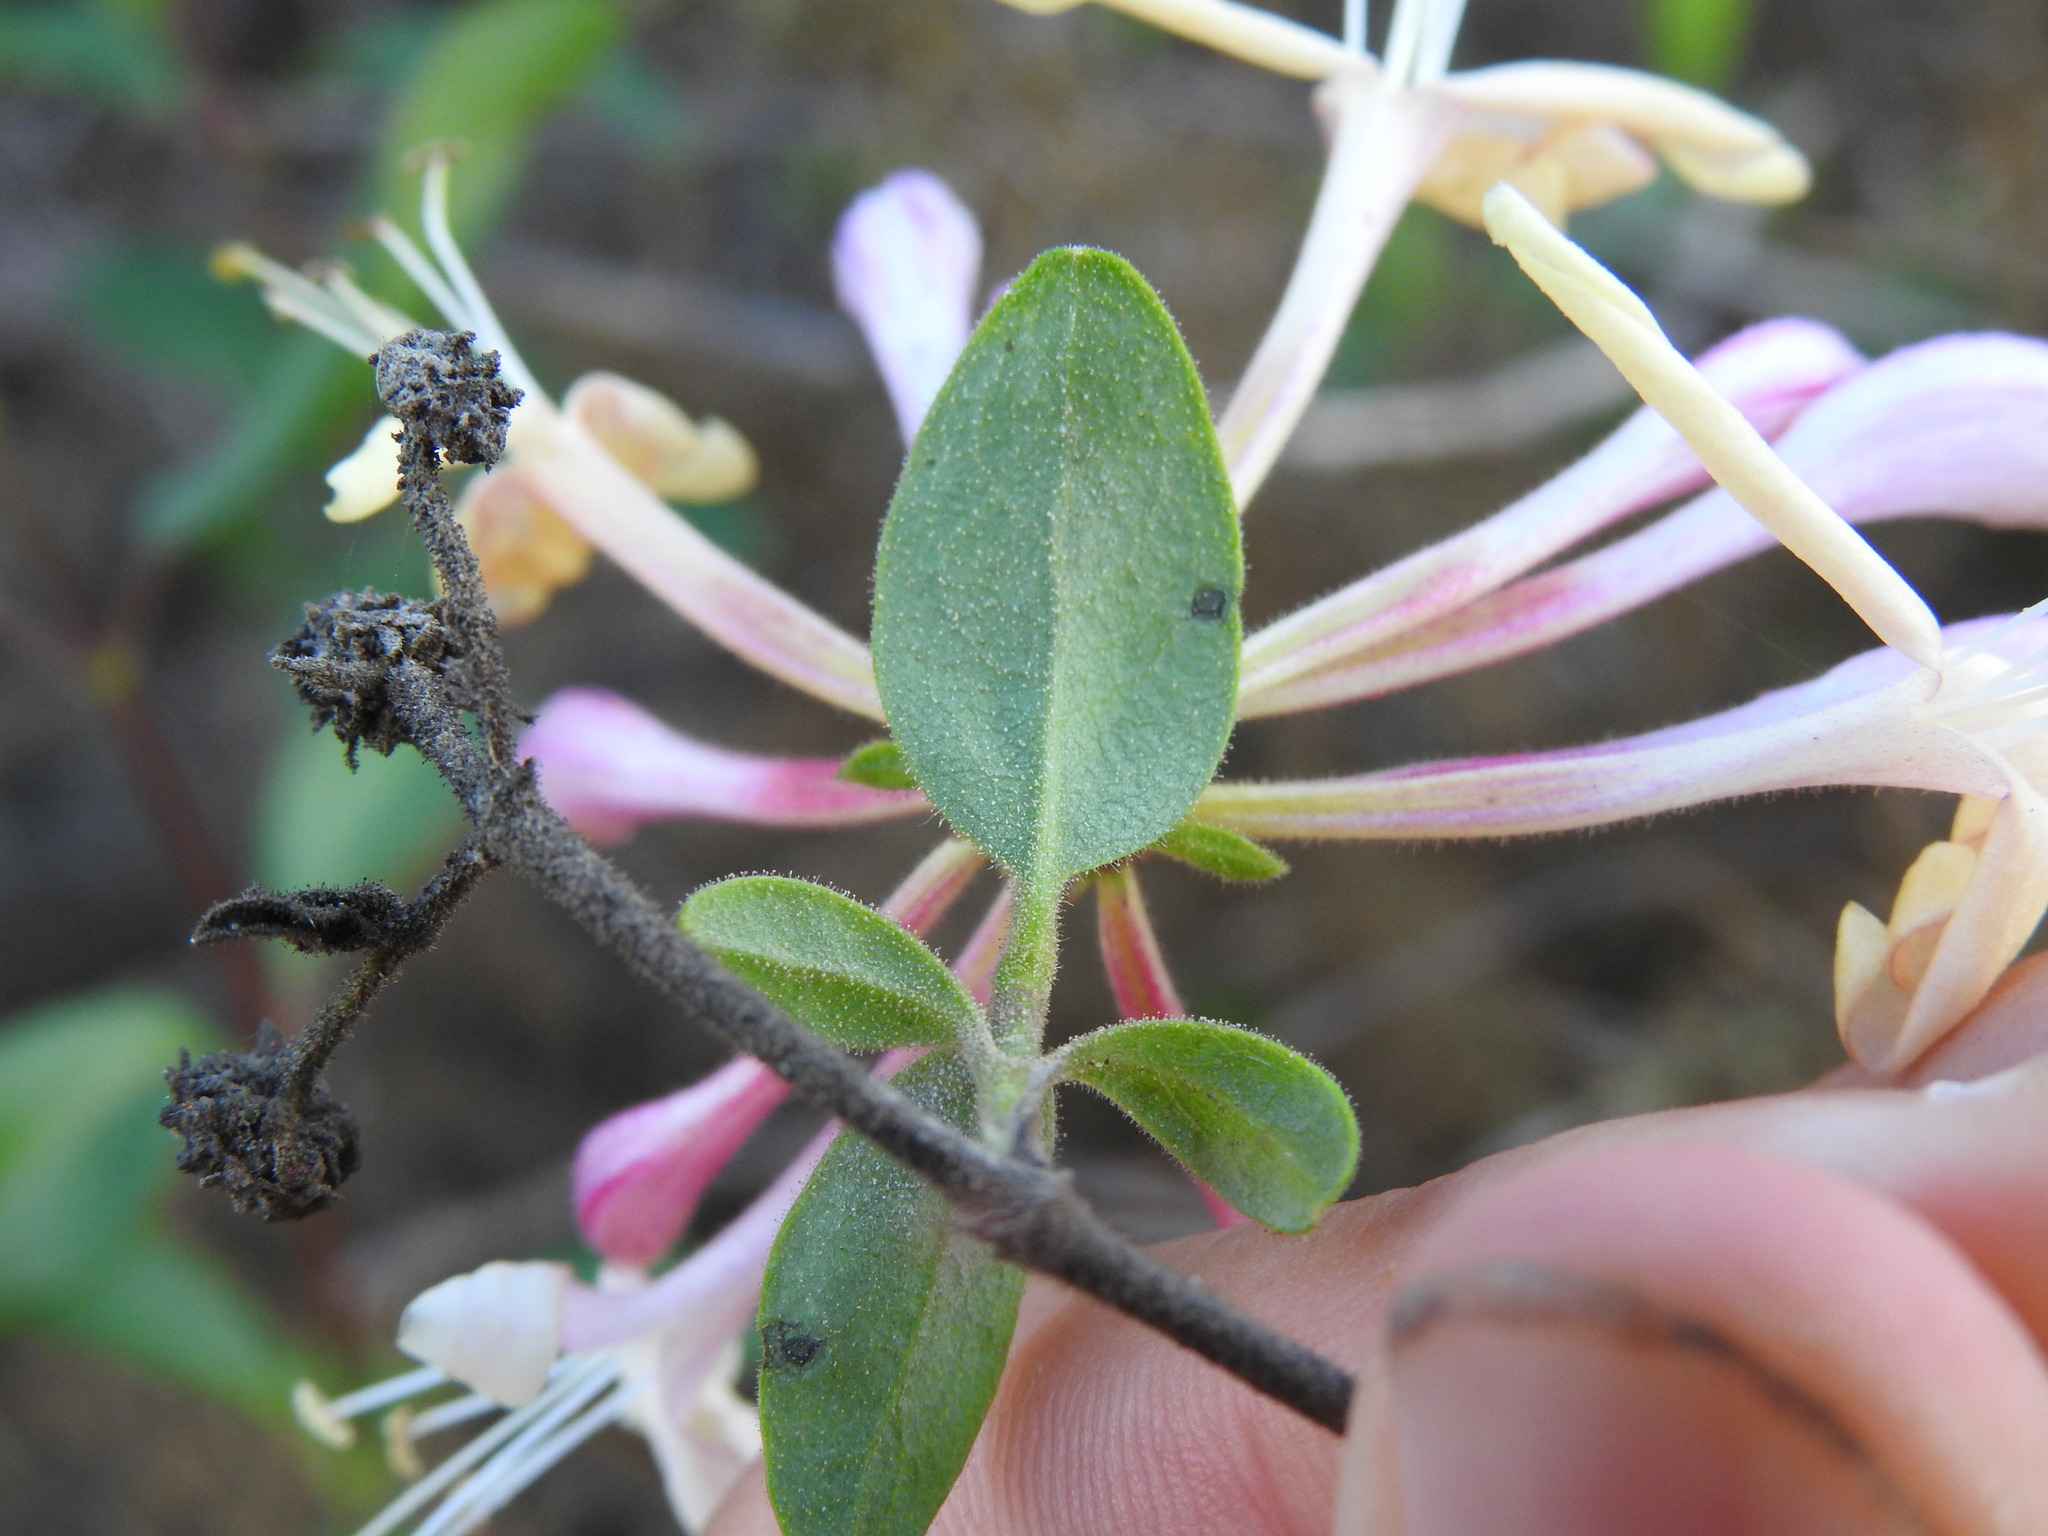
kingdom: Plantae
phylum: Tracheophyta
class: Magnoliopsida
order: Dipsacales
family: Caprifoliaceae
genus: Lonicera
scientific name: Lonicera periclymenum
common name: European honeysuckle
